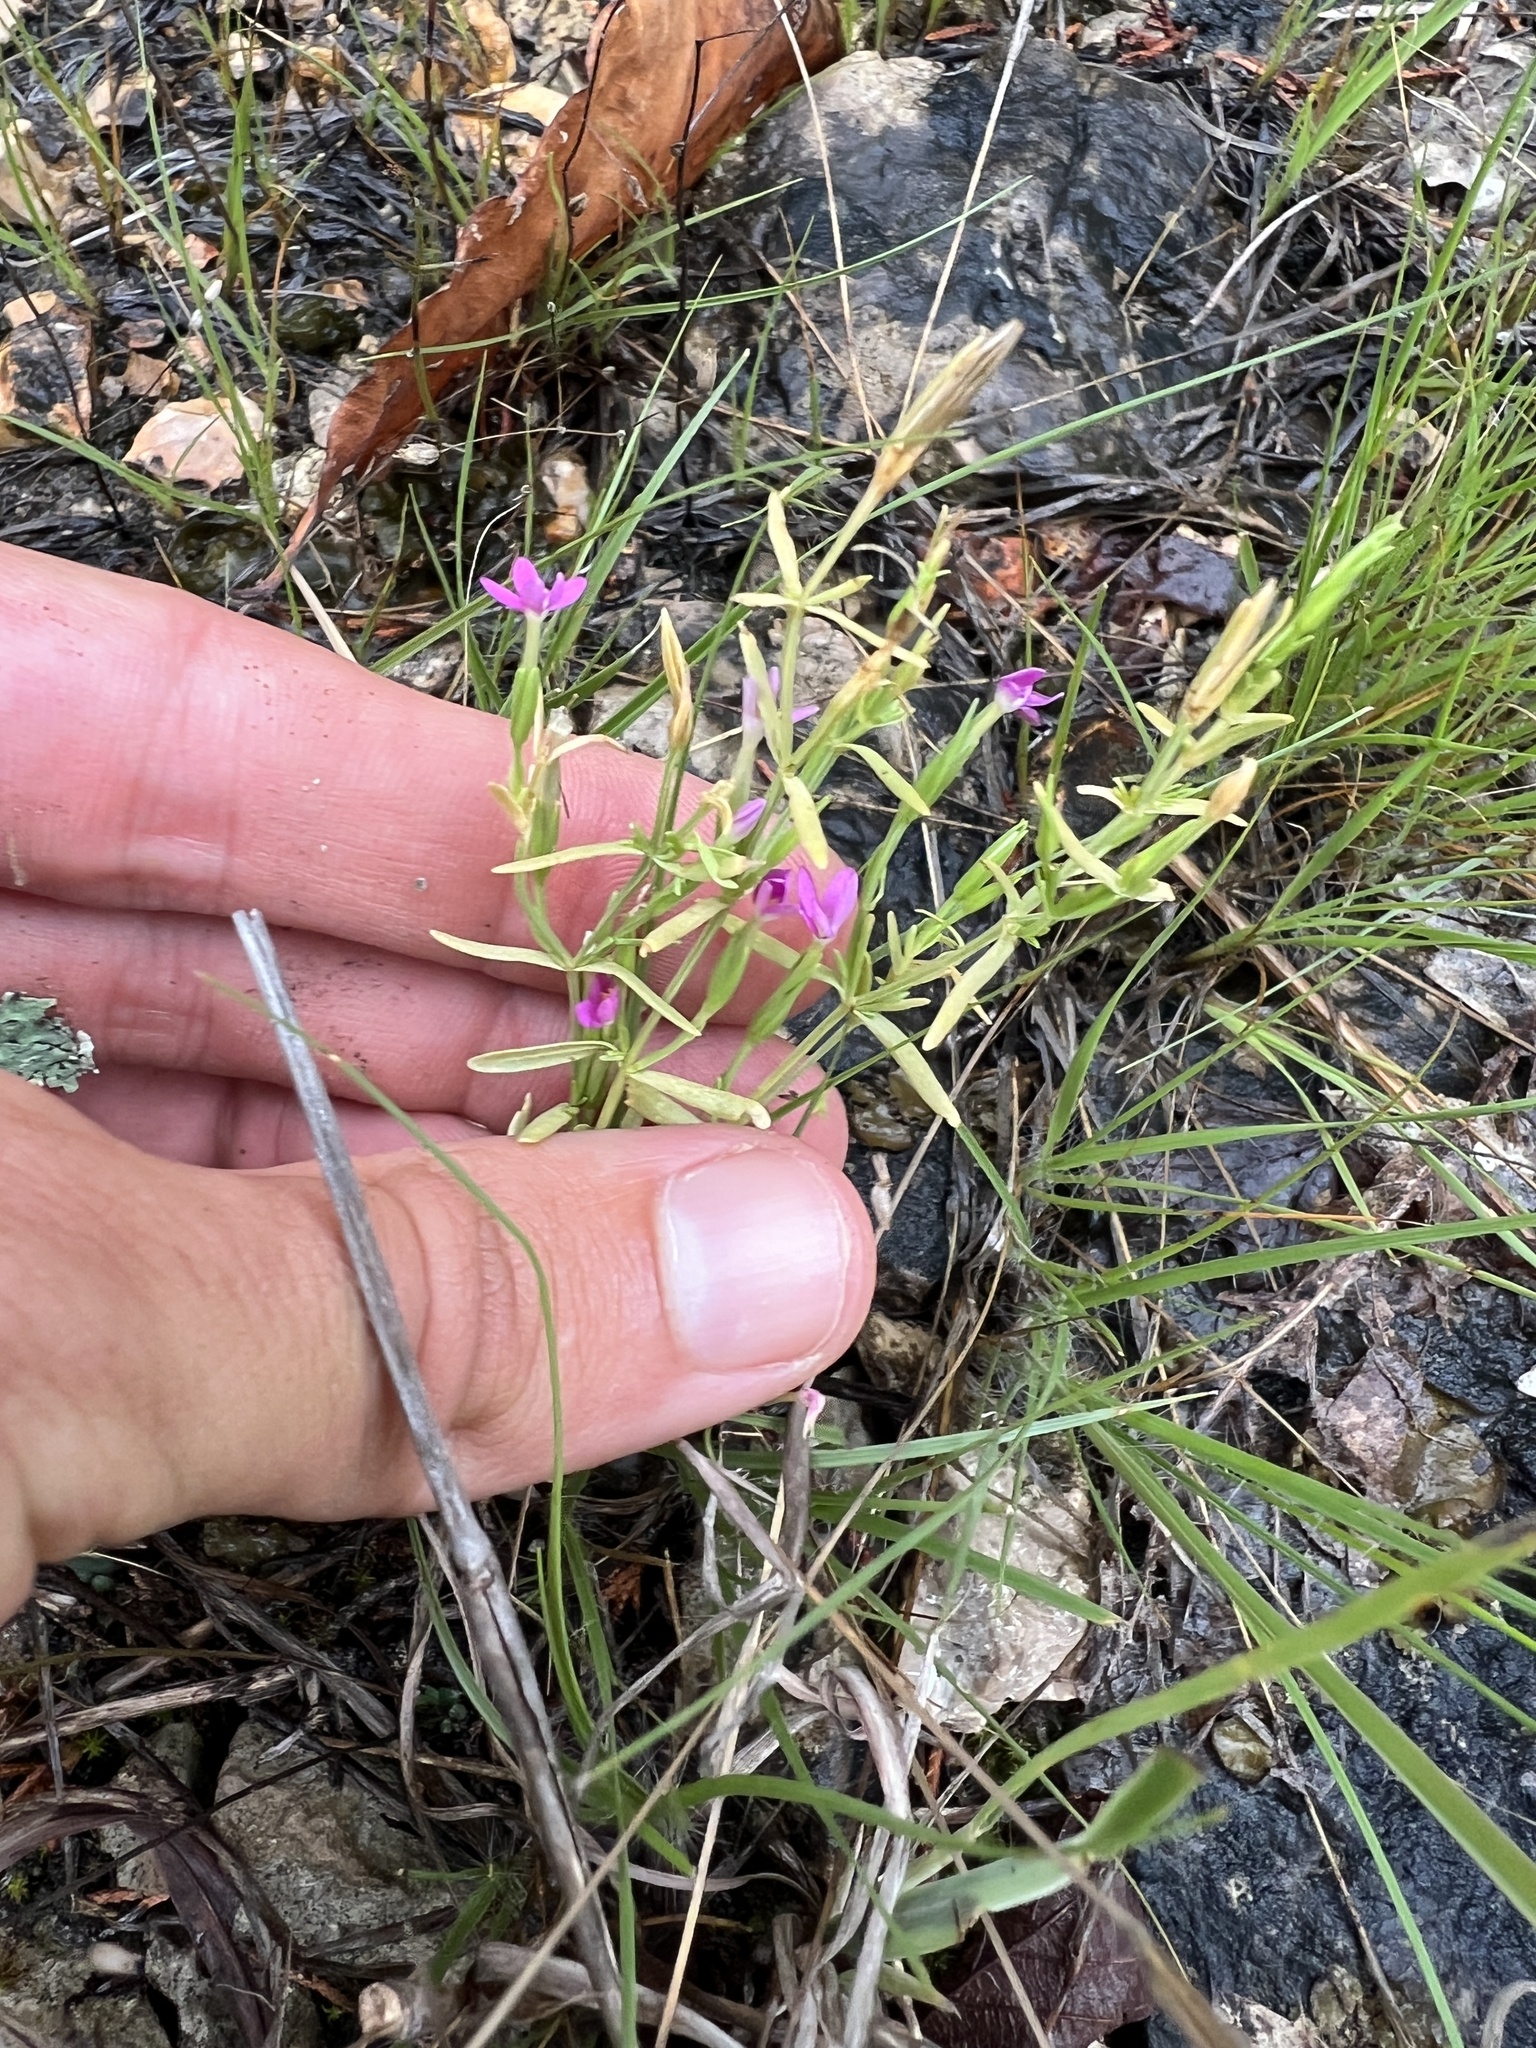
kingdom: Plantae
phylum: Tracheophyta
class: Magnoliopsida
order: Gentianales
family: Gentianaceae
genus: Zeltnera
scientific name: Zeltnera texensis
